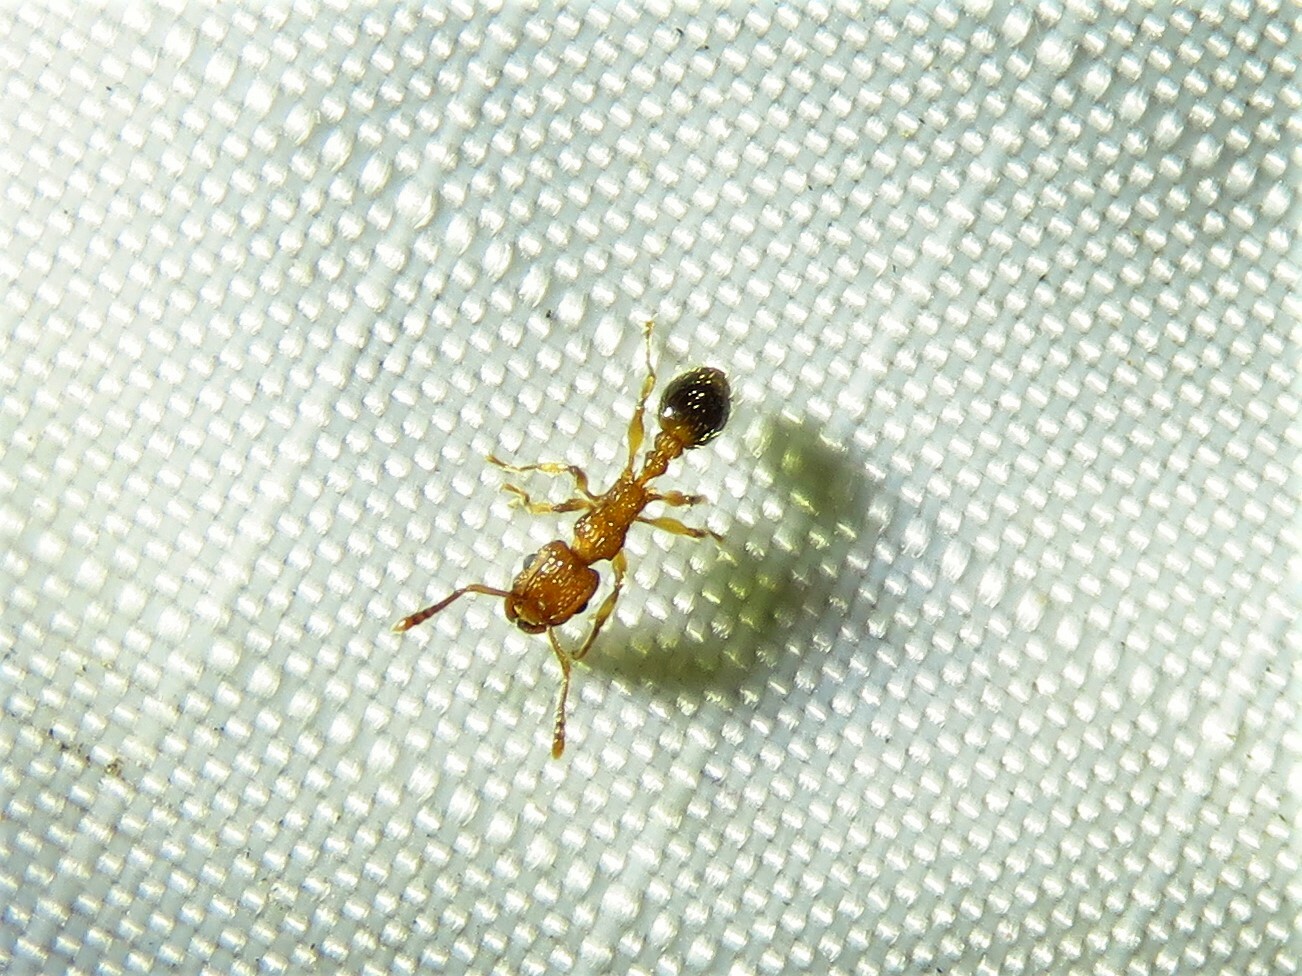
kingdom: Animalia
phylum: Arthropoda
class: Insecta
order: Hymenoptera
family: Formicidae
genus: Tetramorium
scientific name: Tetramorium bicarinatum
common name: Guinea ant
